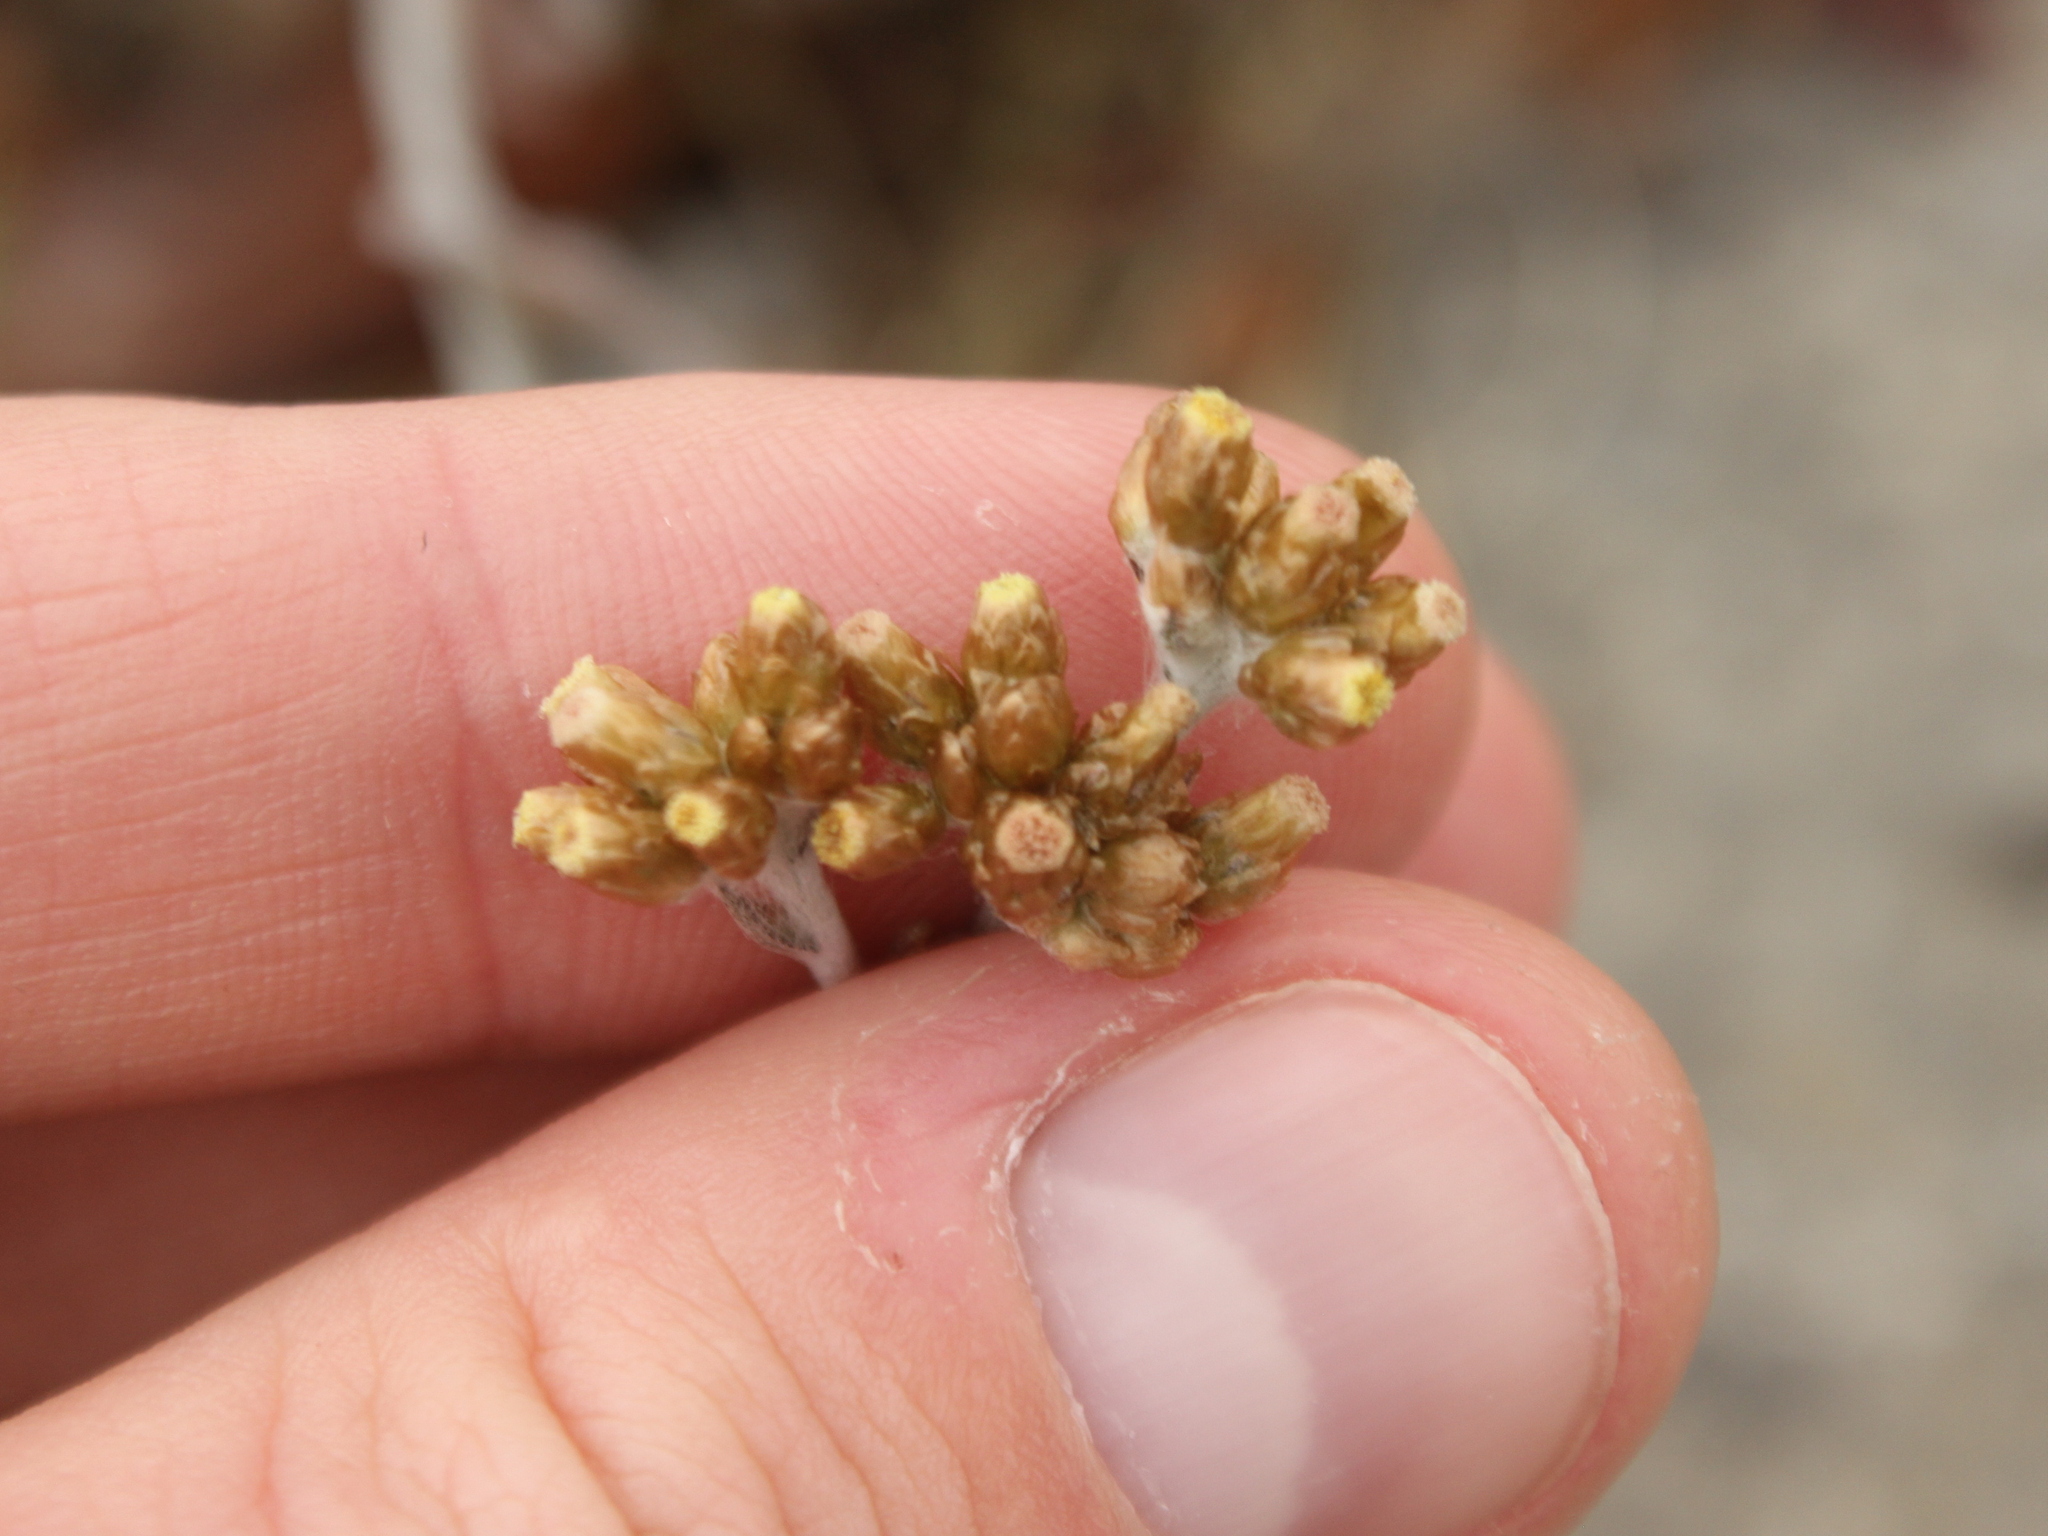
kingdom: Plantae
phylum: Tracheophyta
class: Magnoliopsida
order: Asterales
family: Asteraceae
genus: Pseudognaphalium
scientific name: Pseudognaphalium
